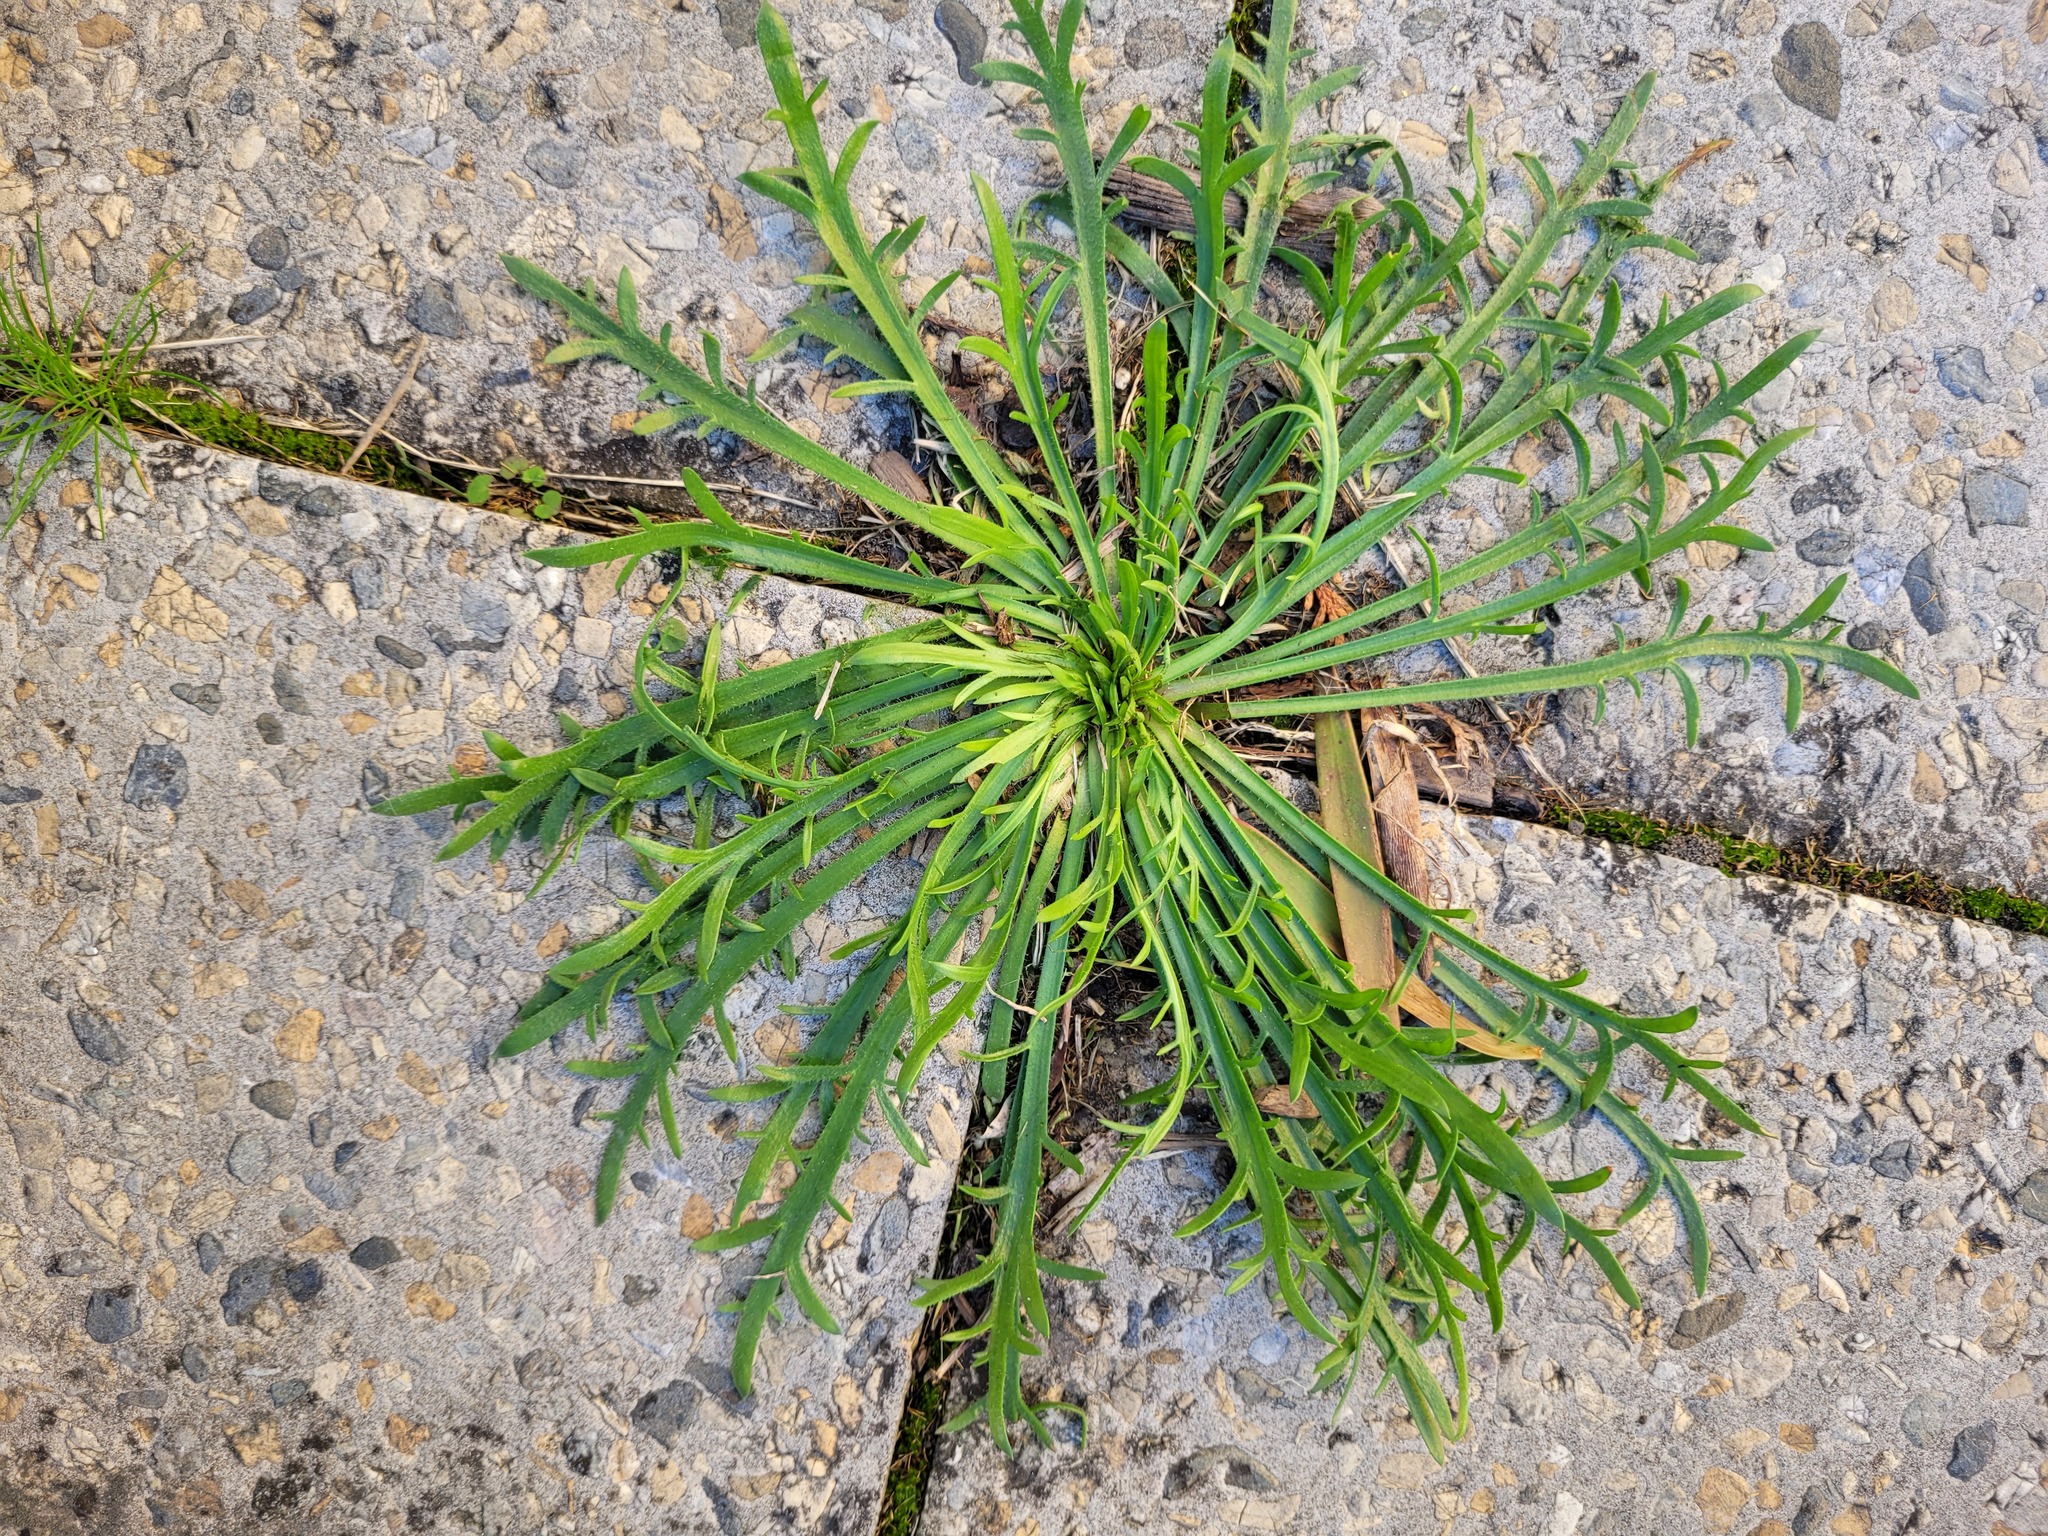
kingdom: Plantae
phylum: Tracheophyta
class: Magnoliopsida
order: Lamiales
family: Plantaginaceae
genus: Plantago
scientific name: Plantago coronopus
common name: Buck's-horn plantain
